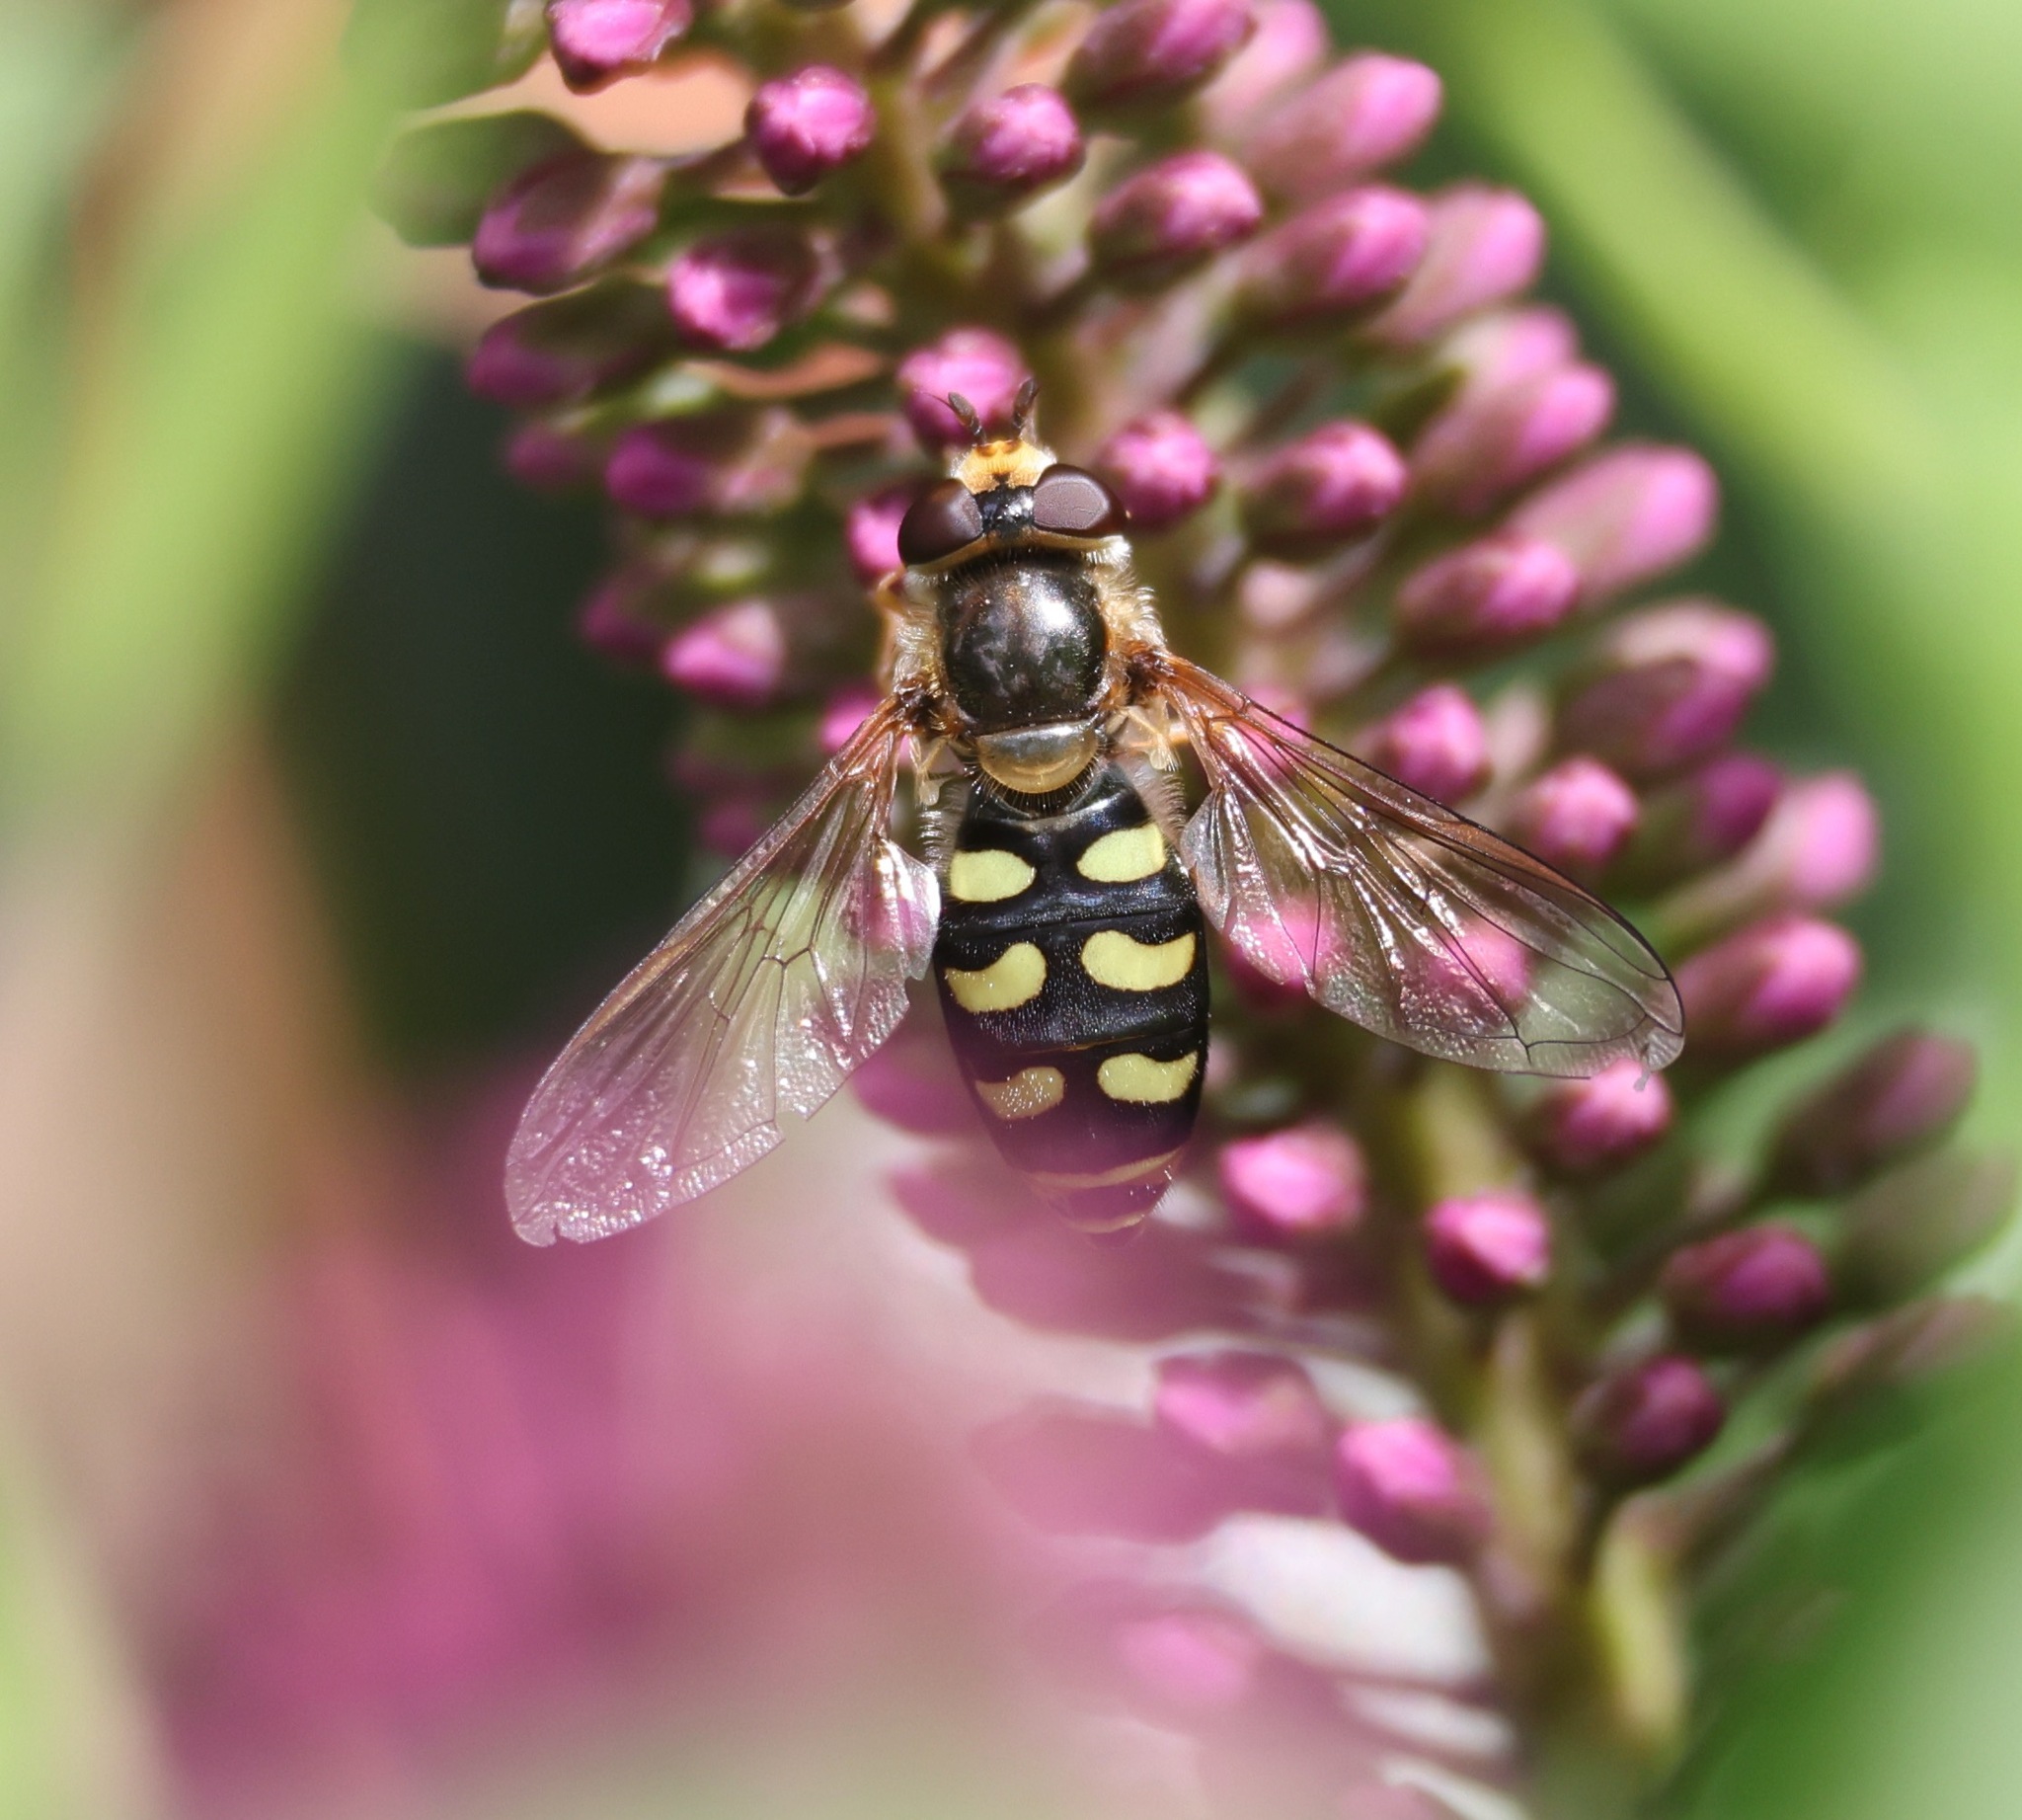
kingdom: Animalia
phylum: Arthropoda
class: Insecta
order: Diptera
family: Syrphidae
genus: Eupeodes
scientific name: Eupeodes luniger
